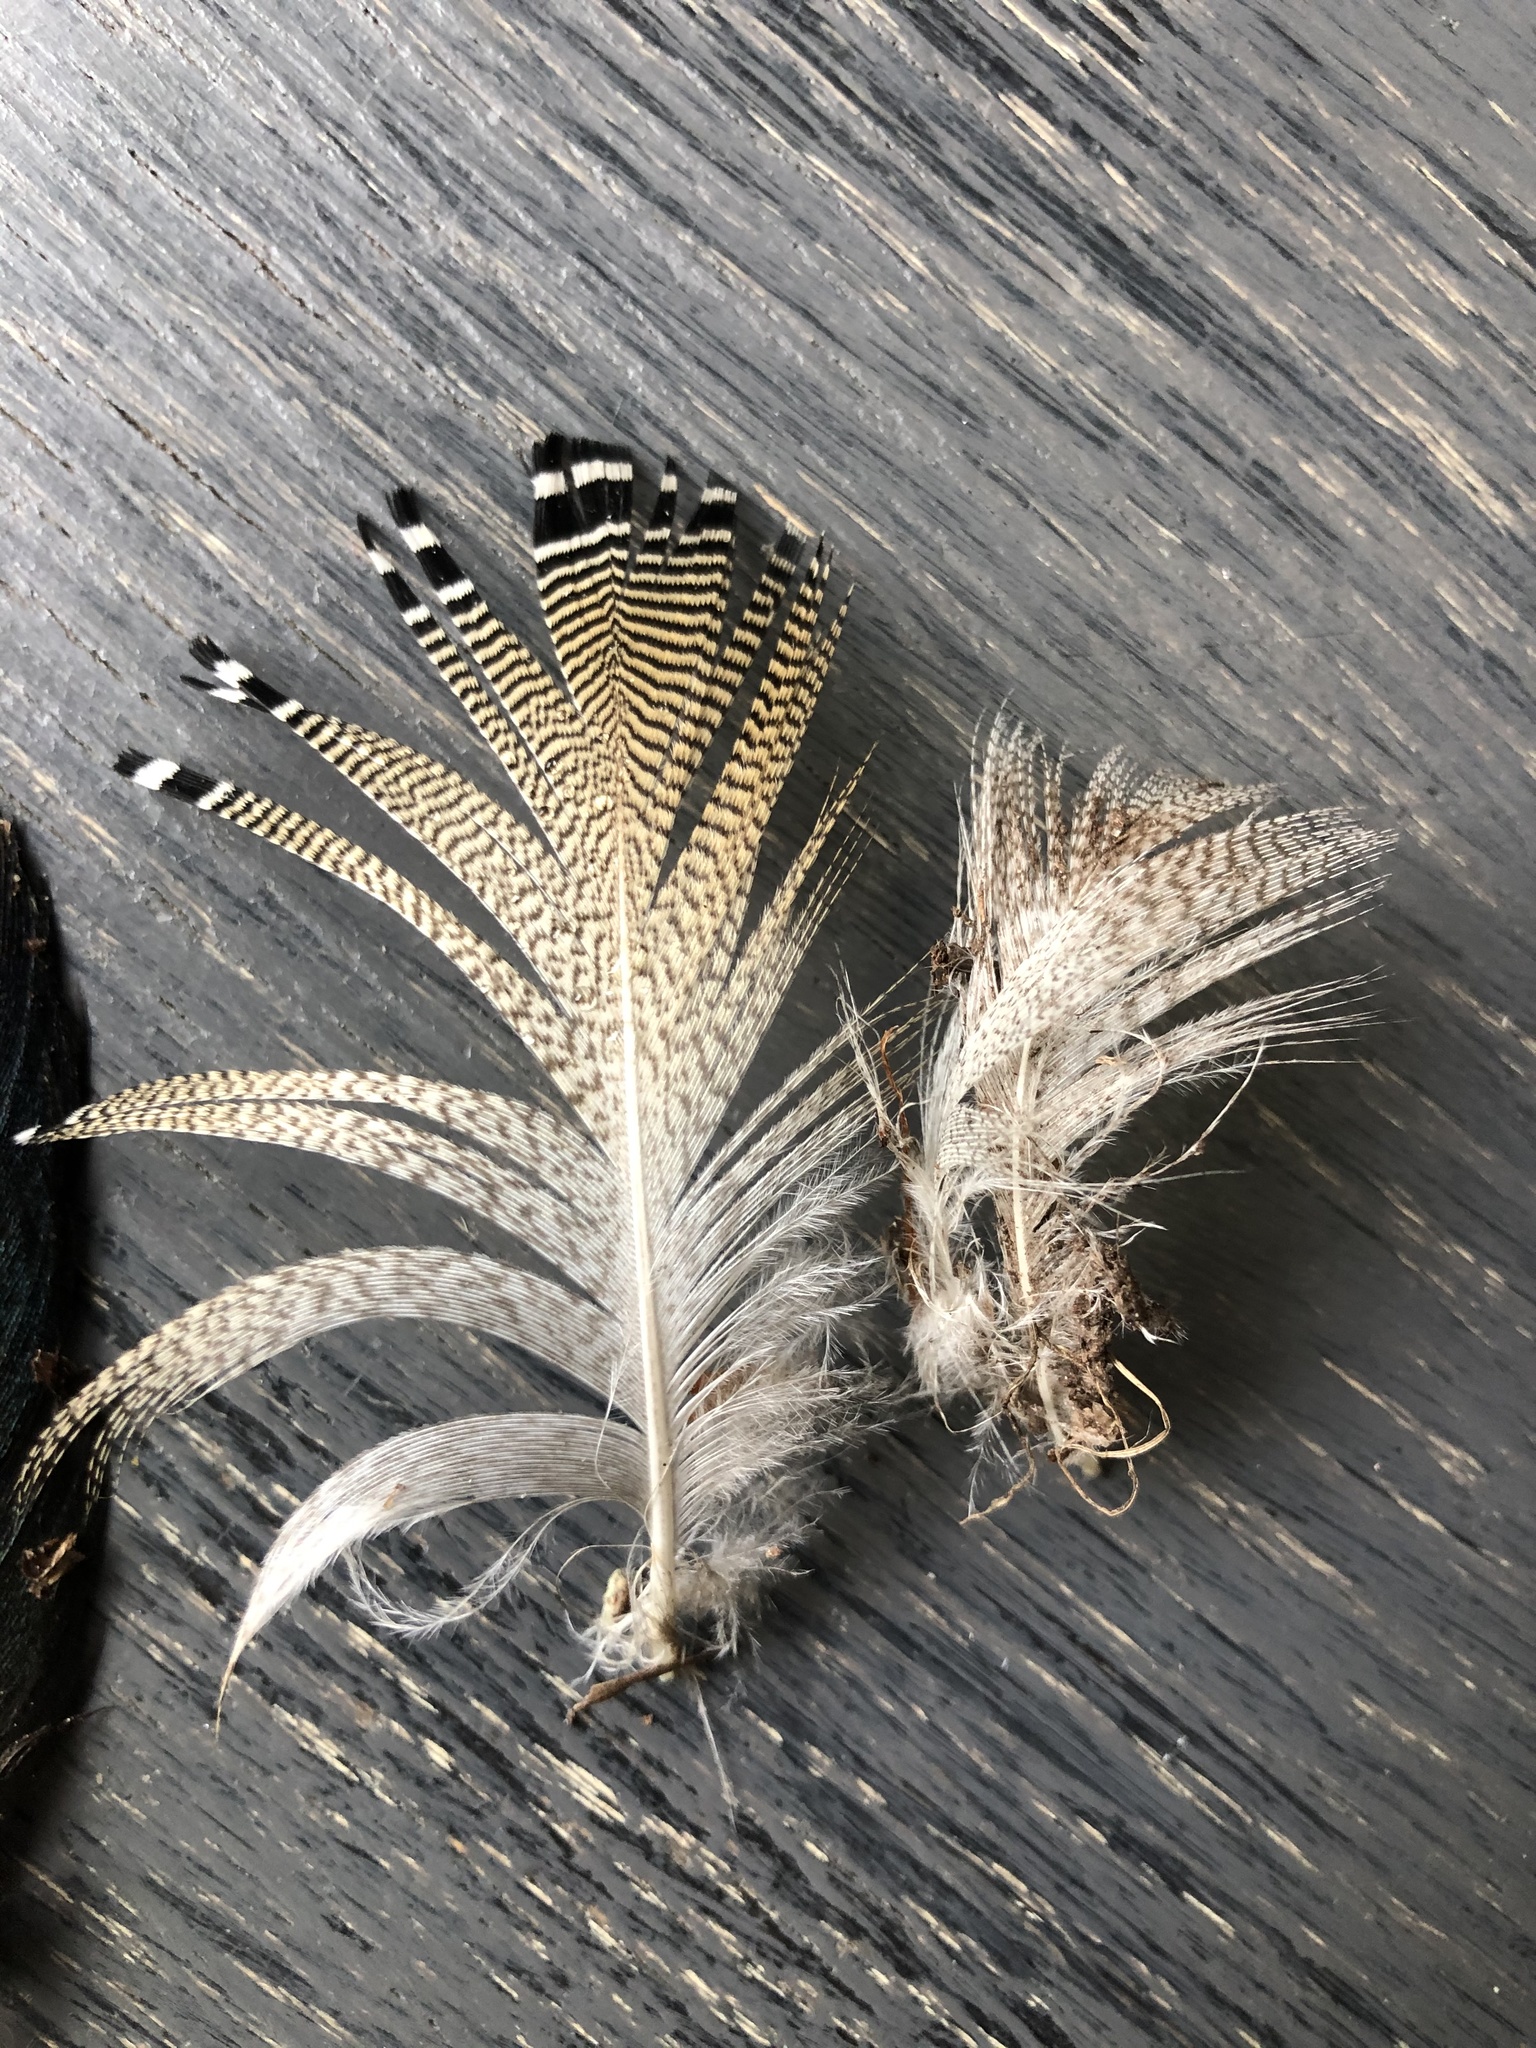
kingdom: Animalia
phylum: Chordata
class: Aves
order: Anseriformes
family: Anatidae
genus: Aix
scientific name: Aix sponsa
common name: Wood duck
